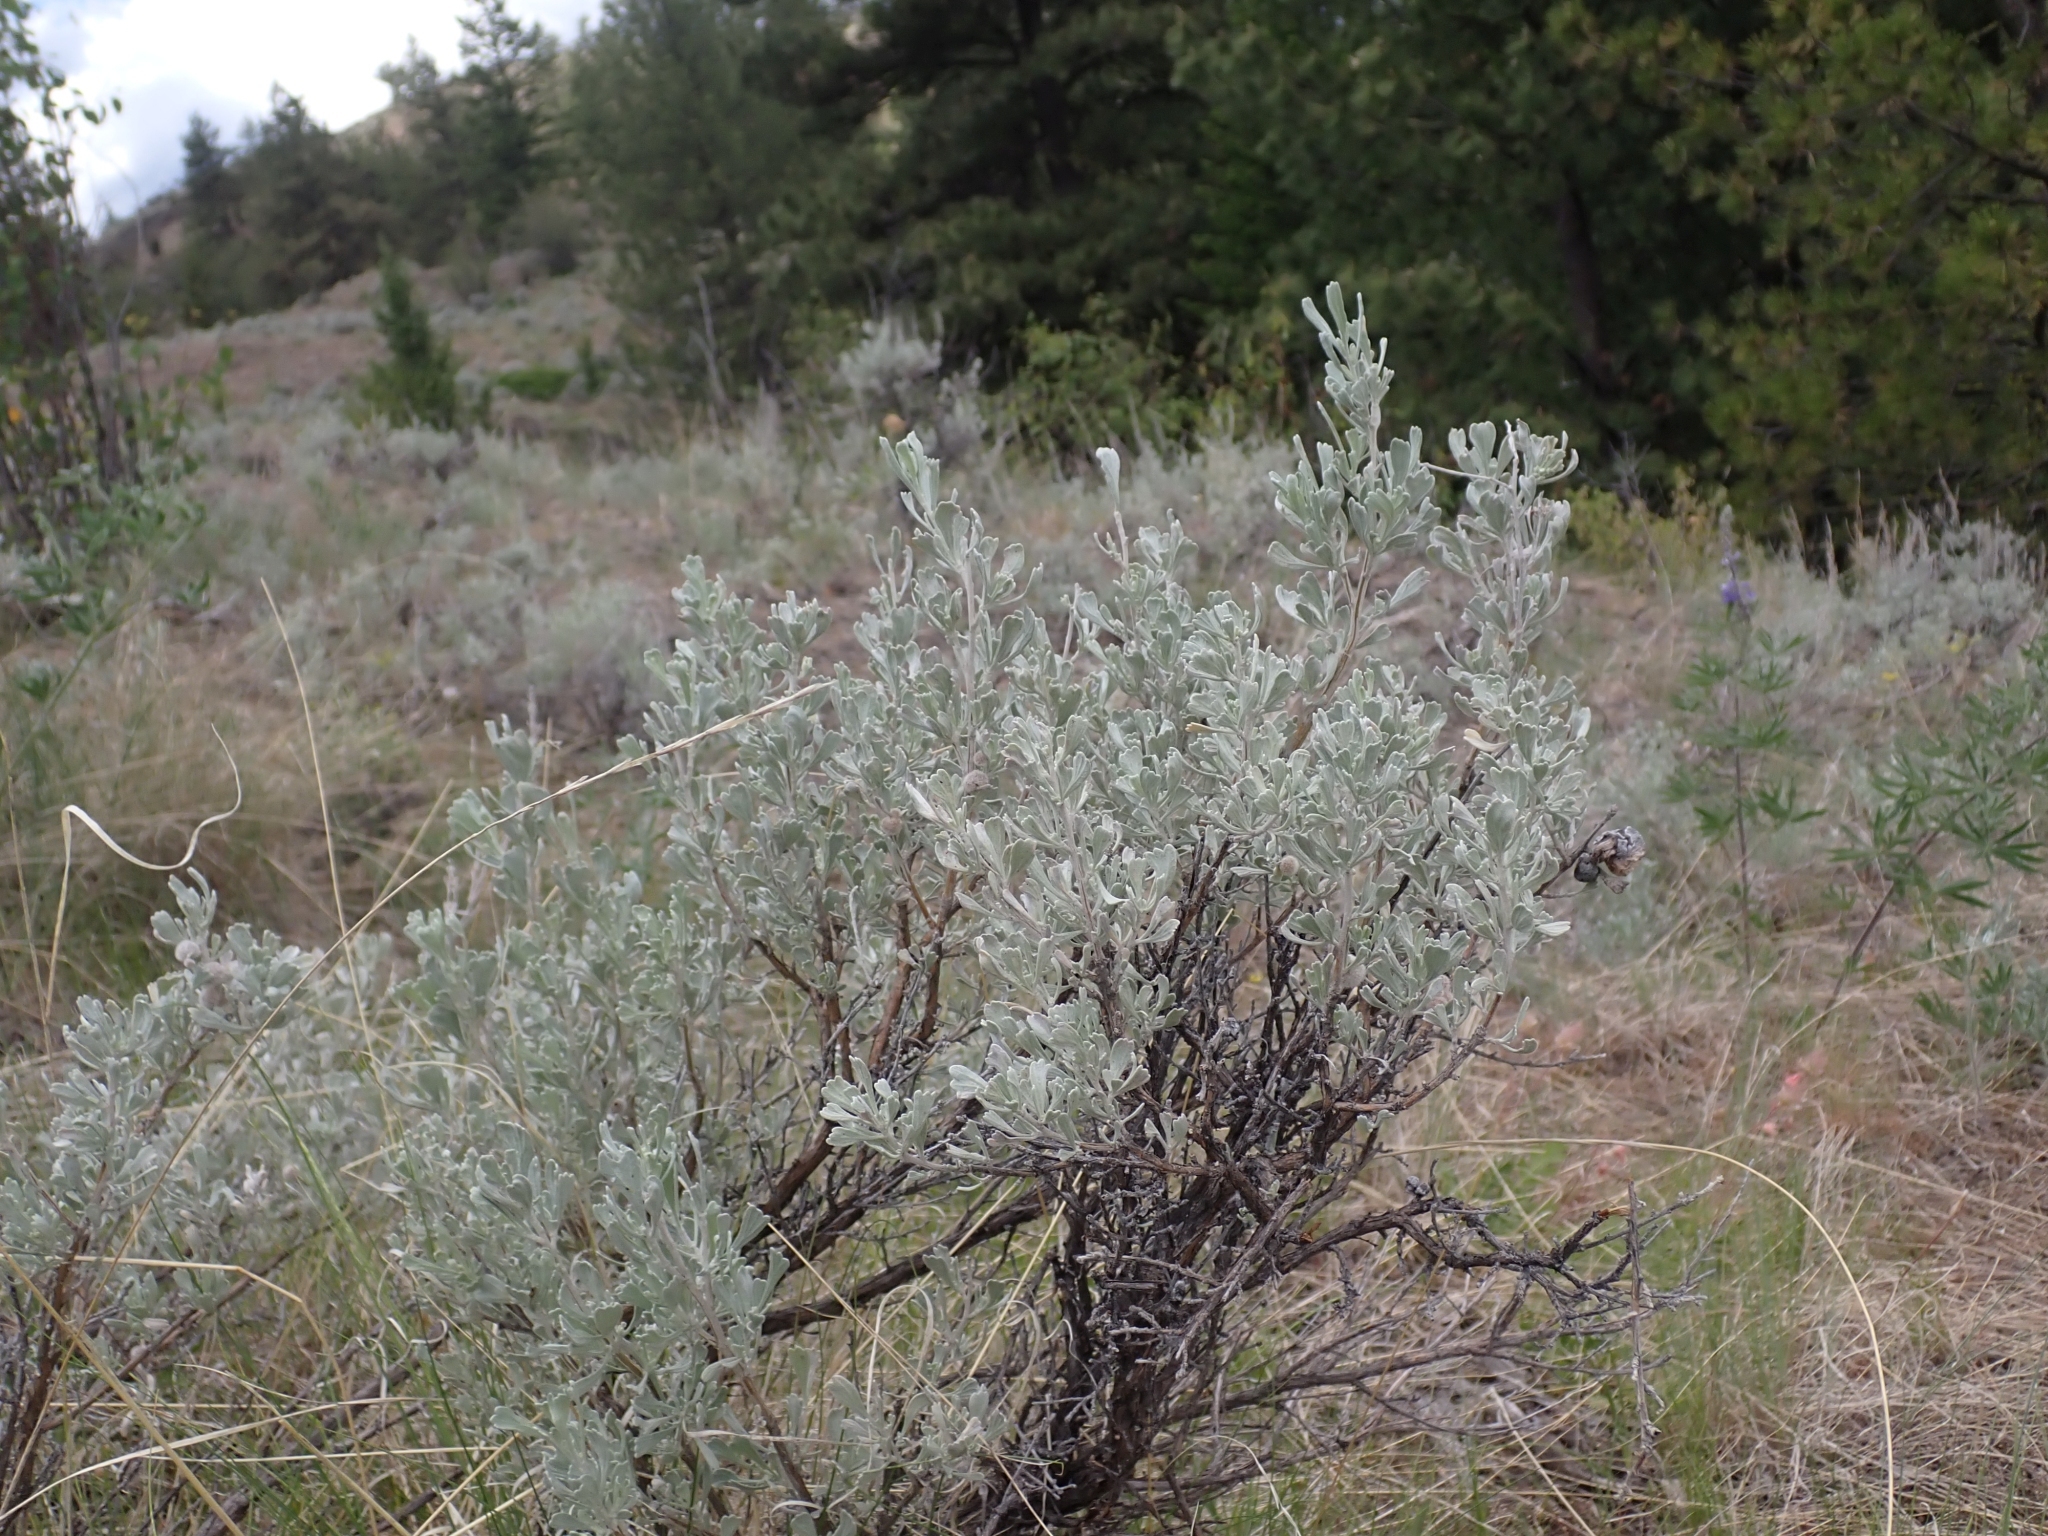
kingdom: Plantae
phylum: Tracheophyta
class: Magnoliopsida
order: Asterales
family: Asteraceae
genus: Artemisia
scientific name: Artemisia tridentata
